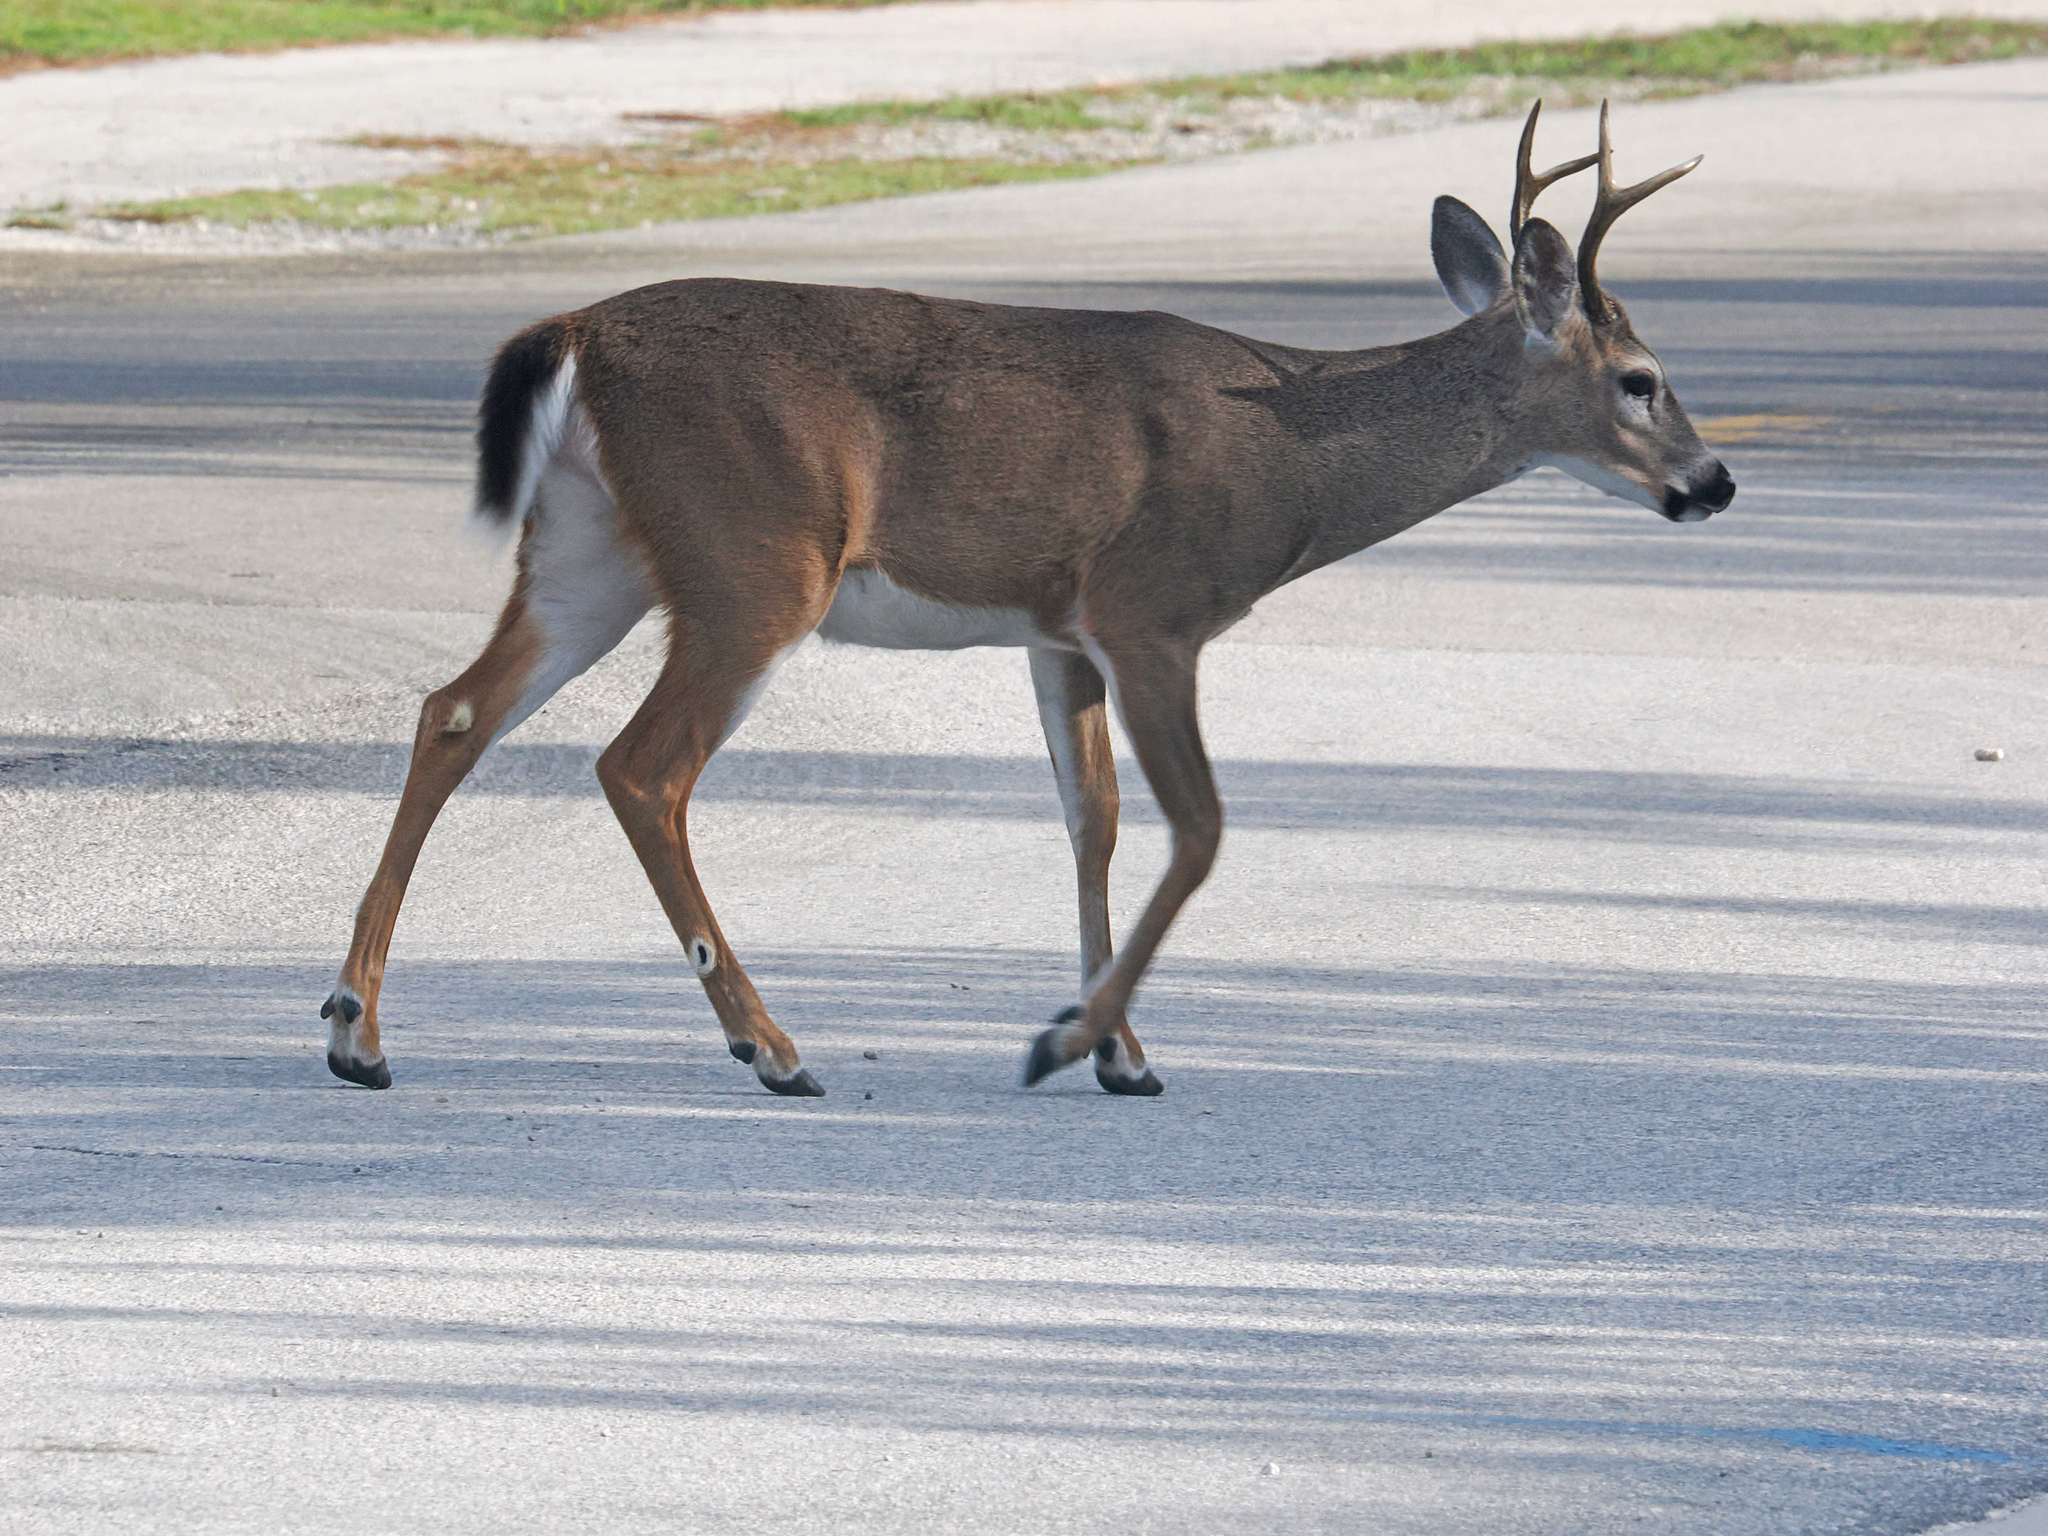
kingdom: Animalia
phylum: Chordata
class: Mammalia
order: Artiodactyla
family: Cervidae
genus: Odocoileus
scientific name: Odocoileus virginianus
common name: White-tailed deer
